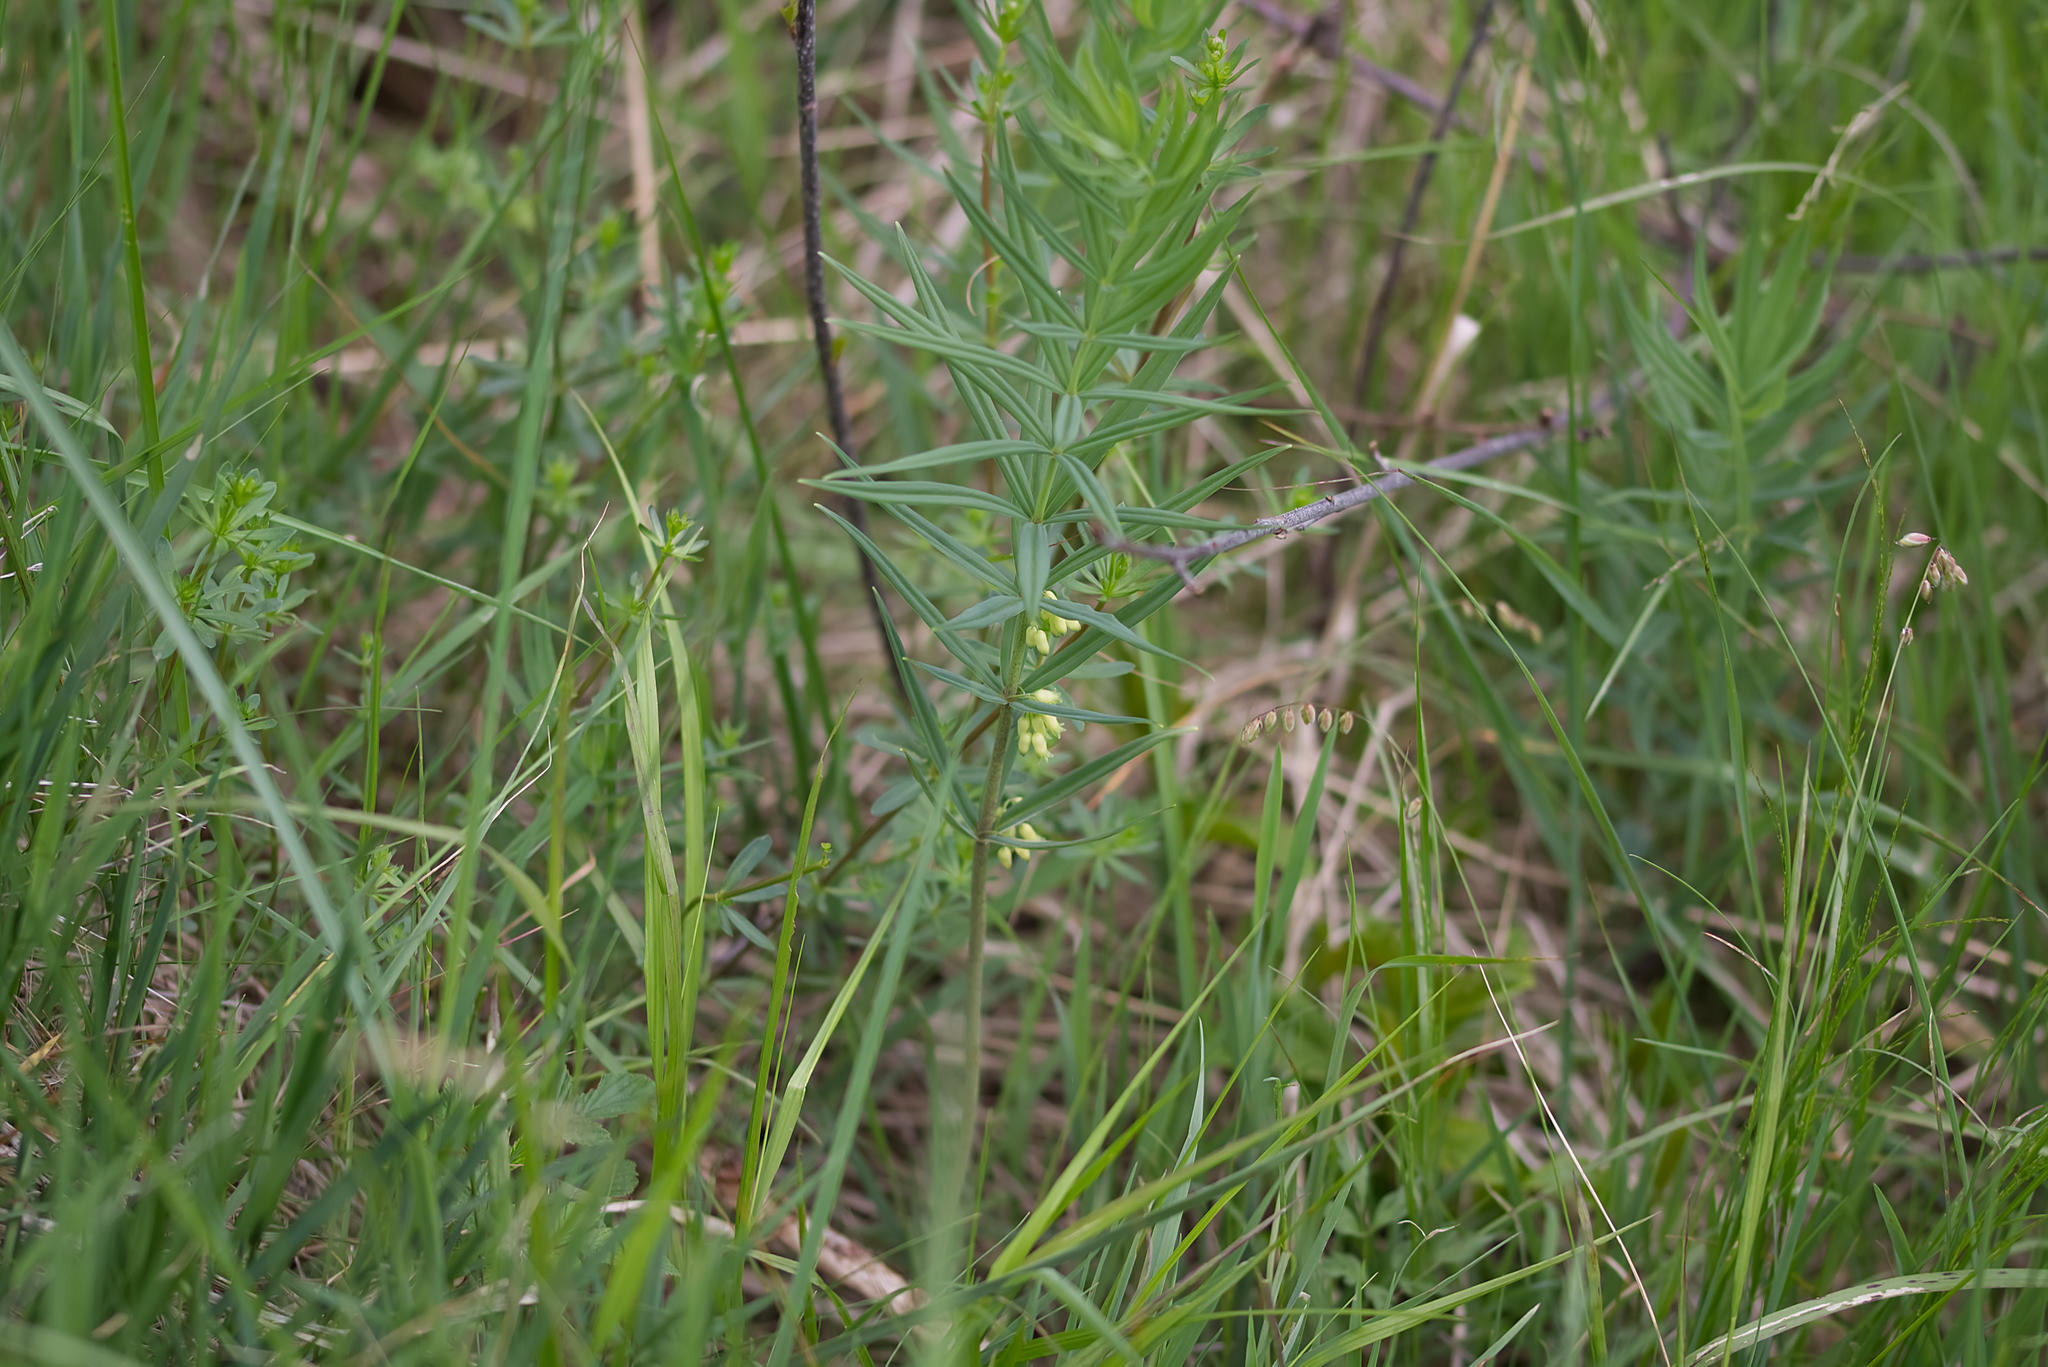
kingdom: Plantae
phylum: Tracheophyta
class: Liliopsida
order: Asparagales
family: Asparagaceae
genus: Polygonatum
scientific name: Polygonatum verticillatum
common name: Whorled solomon's-seal
